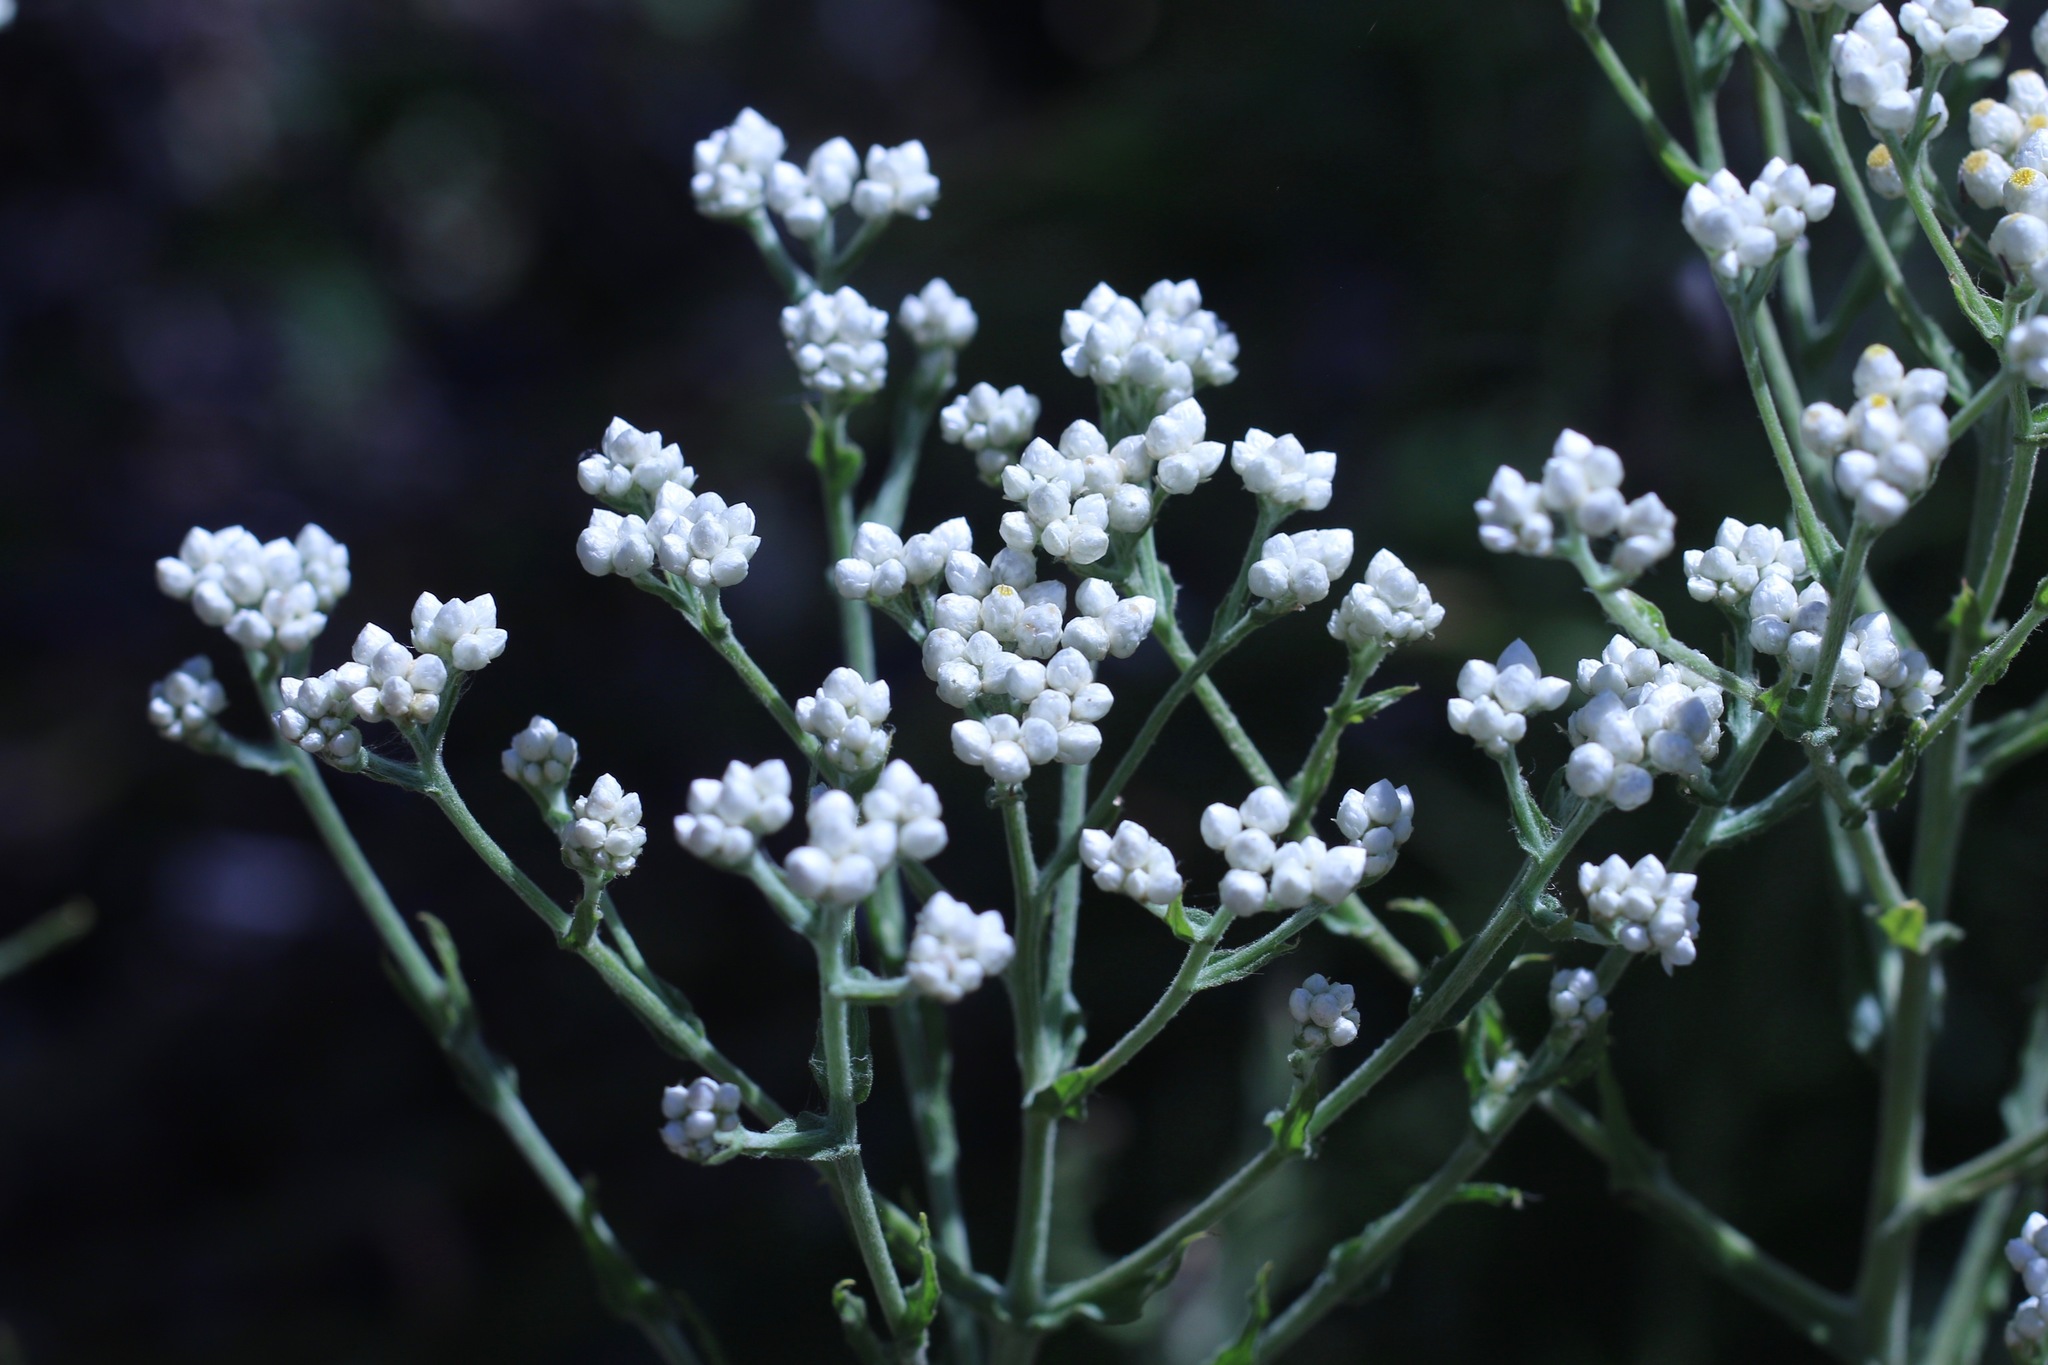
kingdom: Plantae
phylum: Tracheophyta
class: Magnoliopsida
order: Asterales
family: Asteraceae
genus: Pseudognaphalium
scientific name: Pseudognaphalium californicum
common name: California rabbit-tobacco
